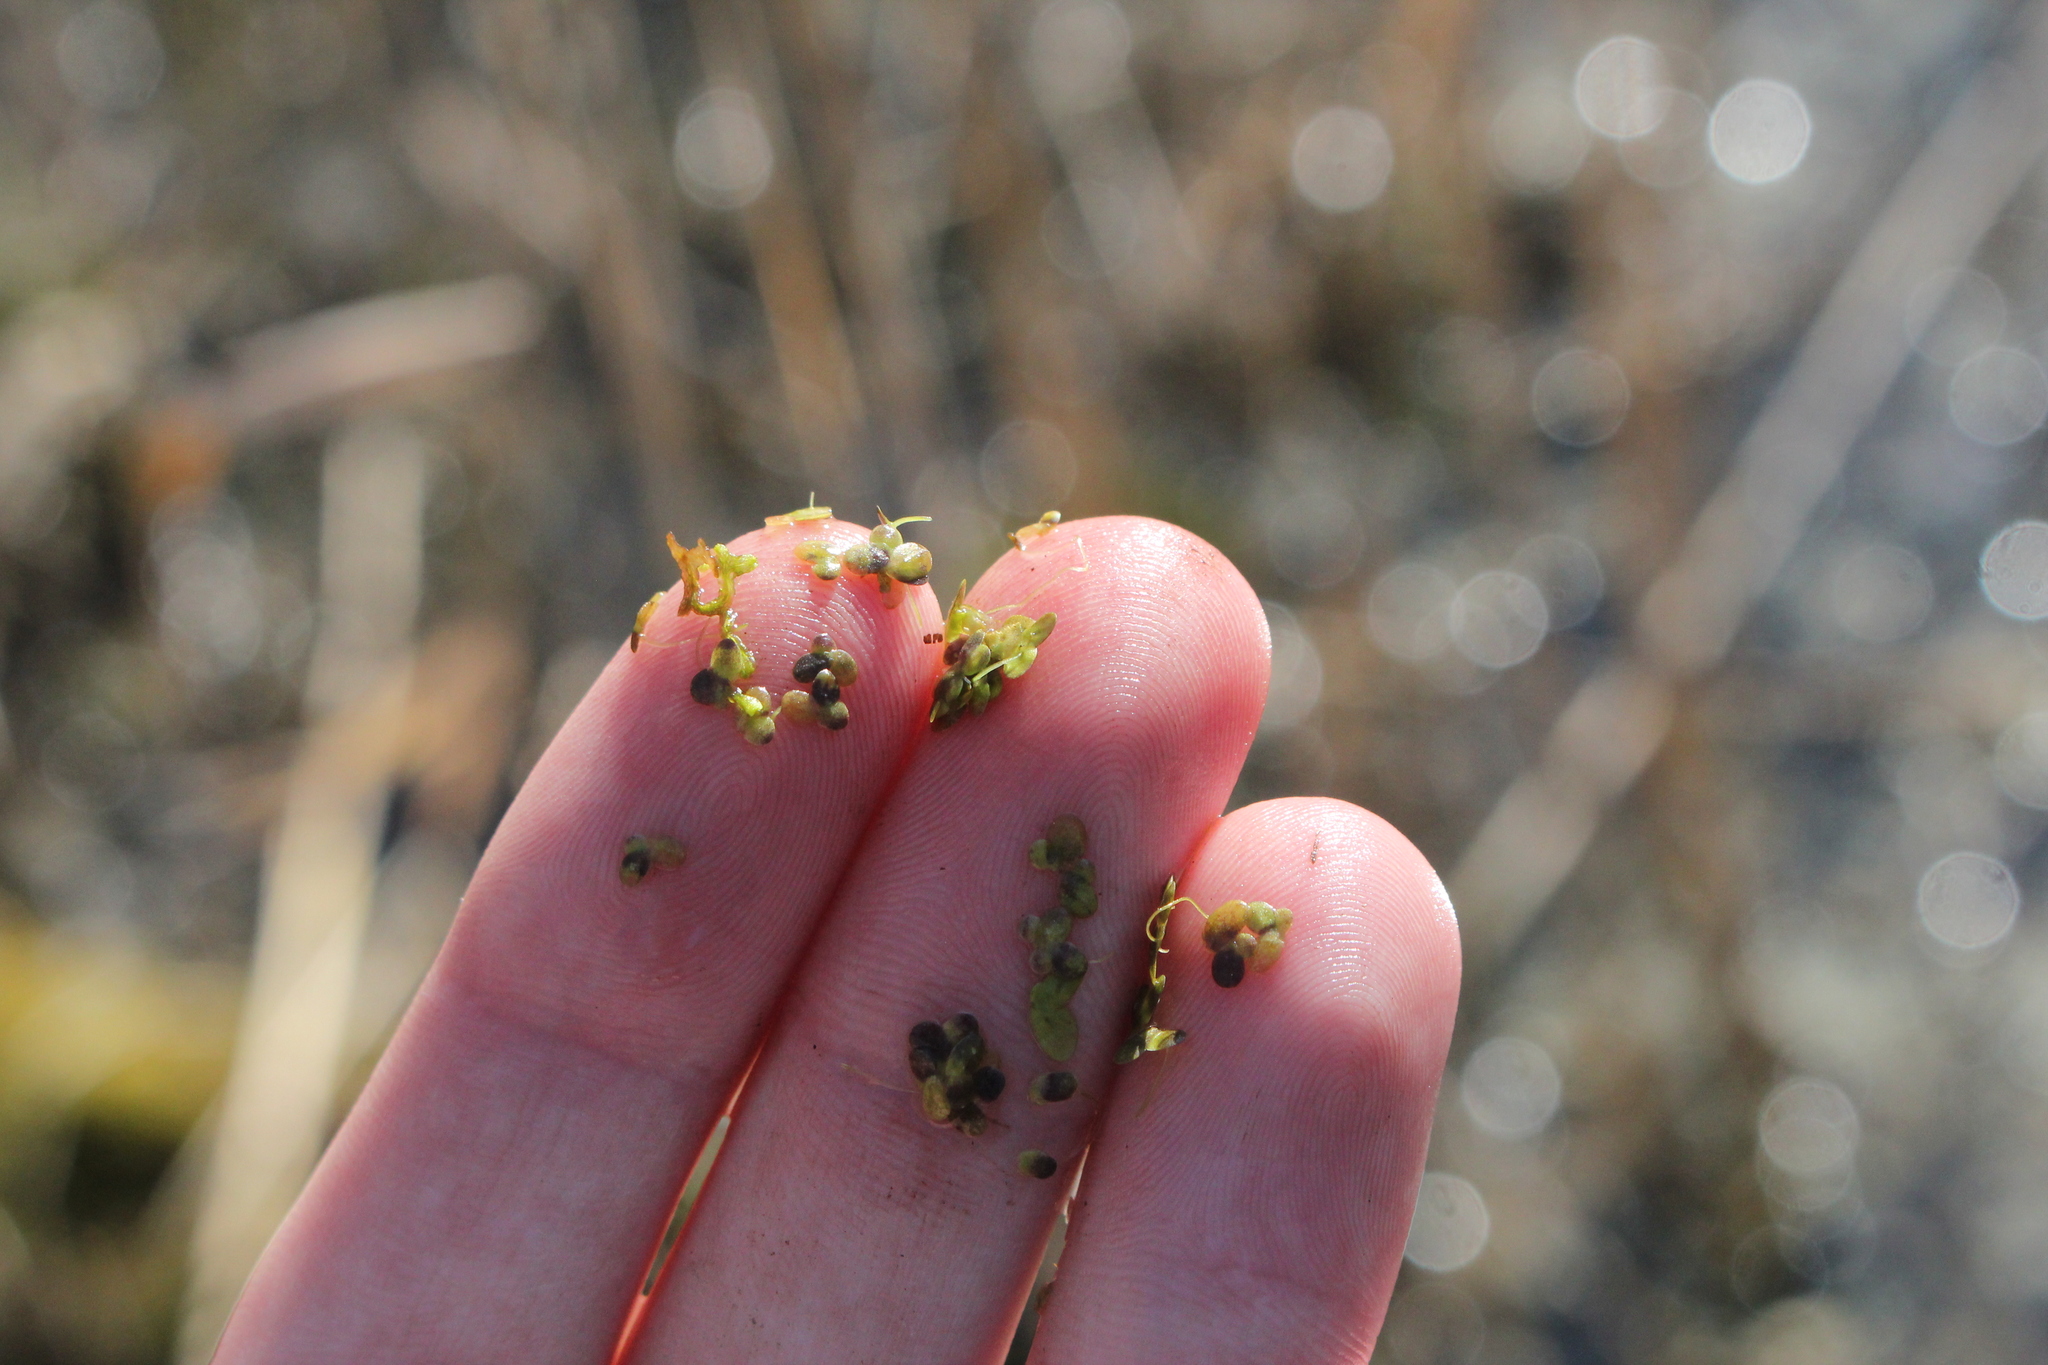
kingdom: Plantae
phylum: Tracheophyta
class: Liliopsida
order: Alismatales
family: Araceae
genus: Lemna
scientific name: Lemna minor
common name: Common duckweed
